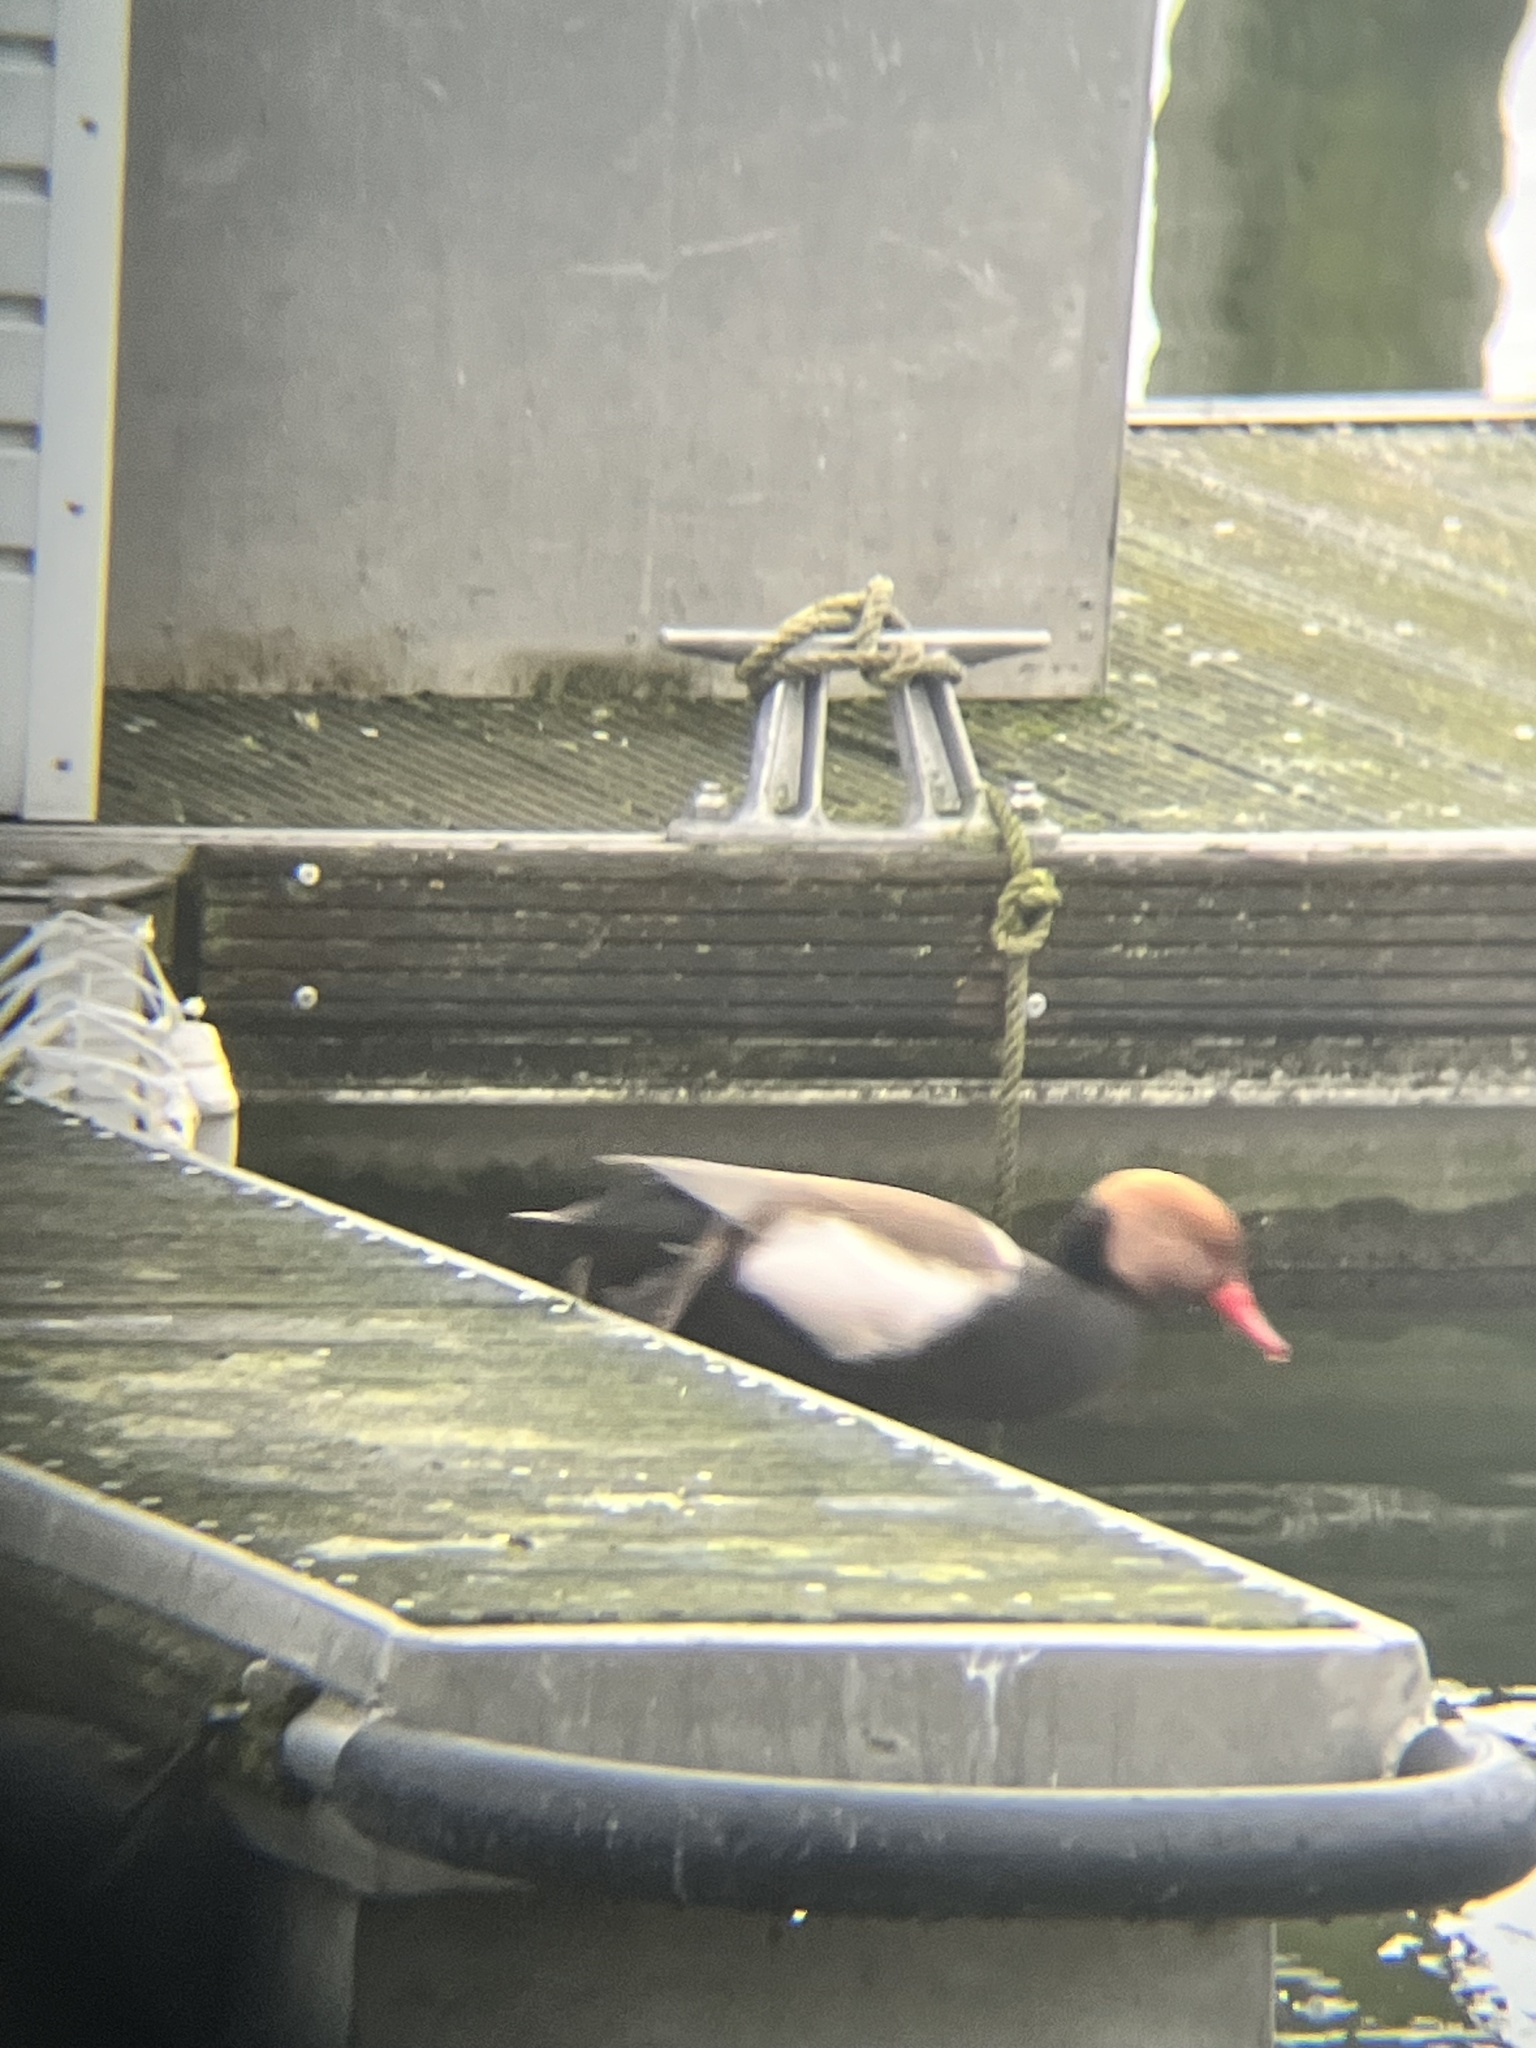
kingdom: Animalia
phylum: Chordata
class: Aves
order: Anseriformes
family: Anatidae
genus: Netta
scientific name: Netta rufina
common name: Red-crested pochard
